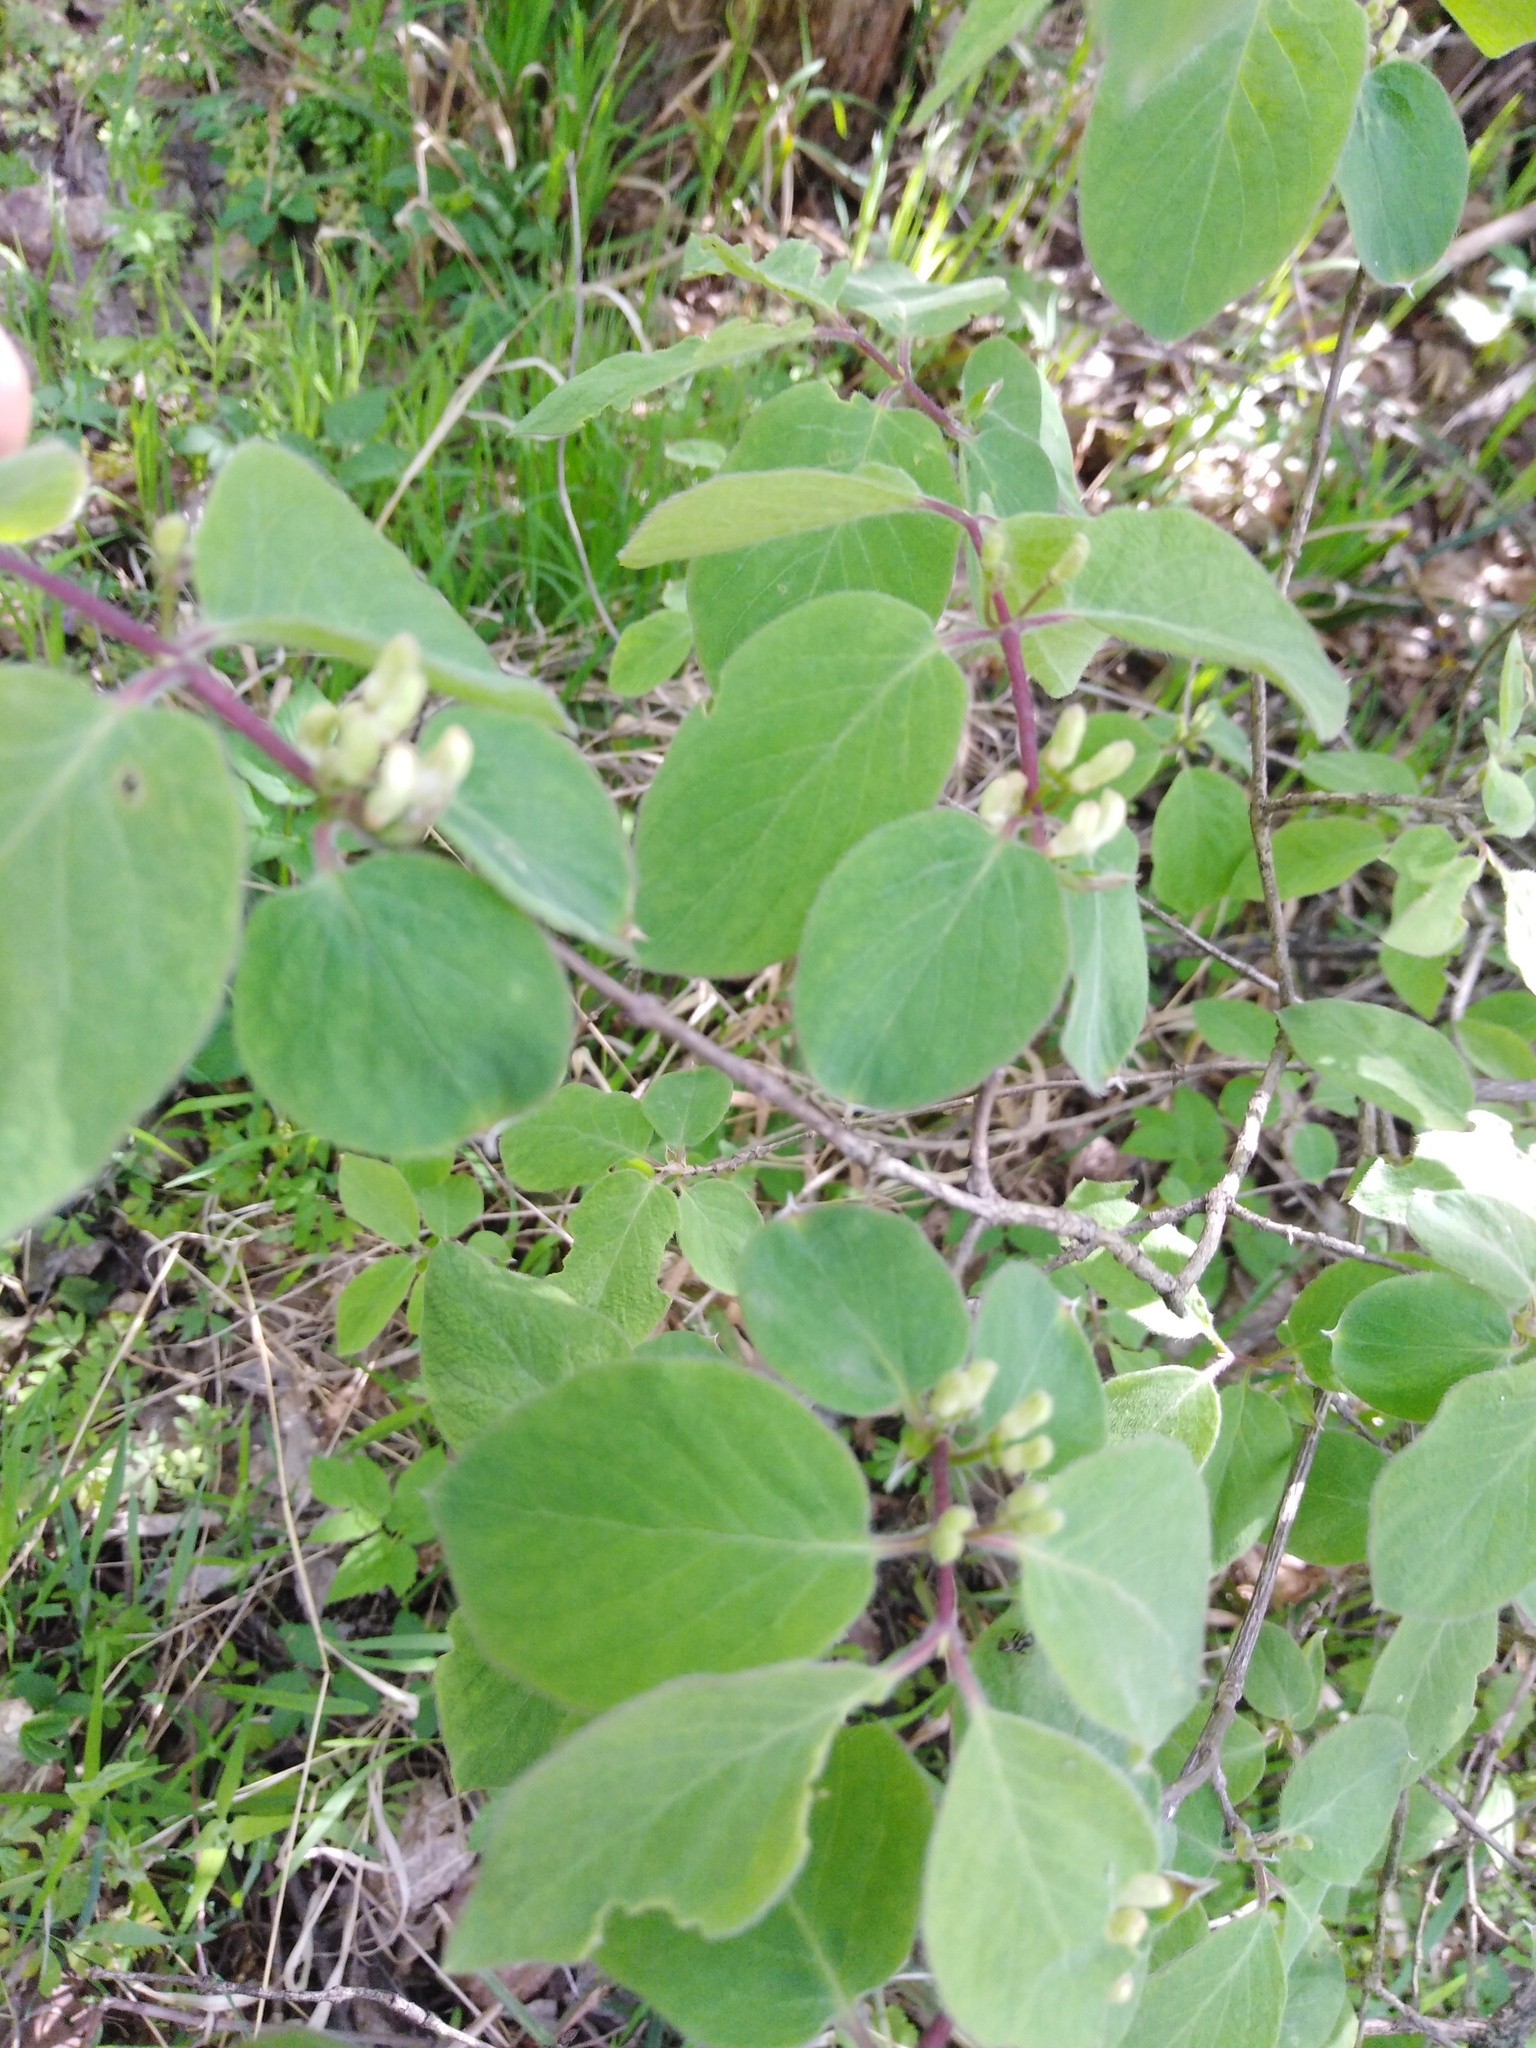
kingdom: Plantae
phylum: Tracheophyta
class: Magnoliopsida
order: Dipsacales
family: Caprifoliaceae
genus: Lonicera
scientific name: Lonicera xylosteum
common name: Fly honeysuckle
